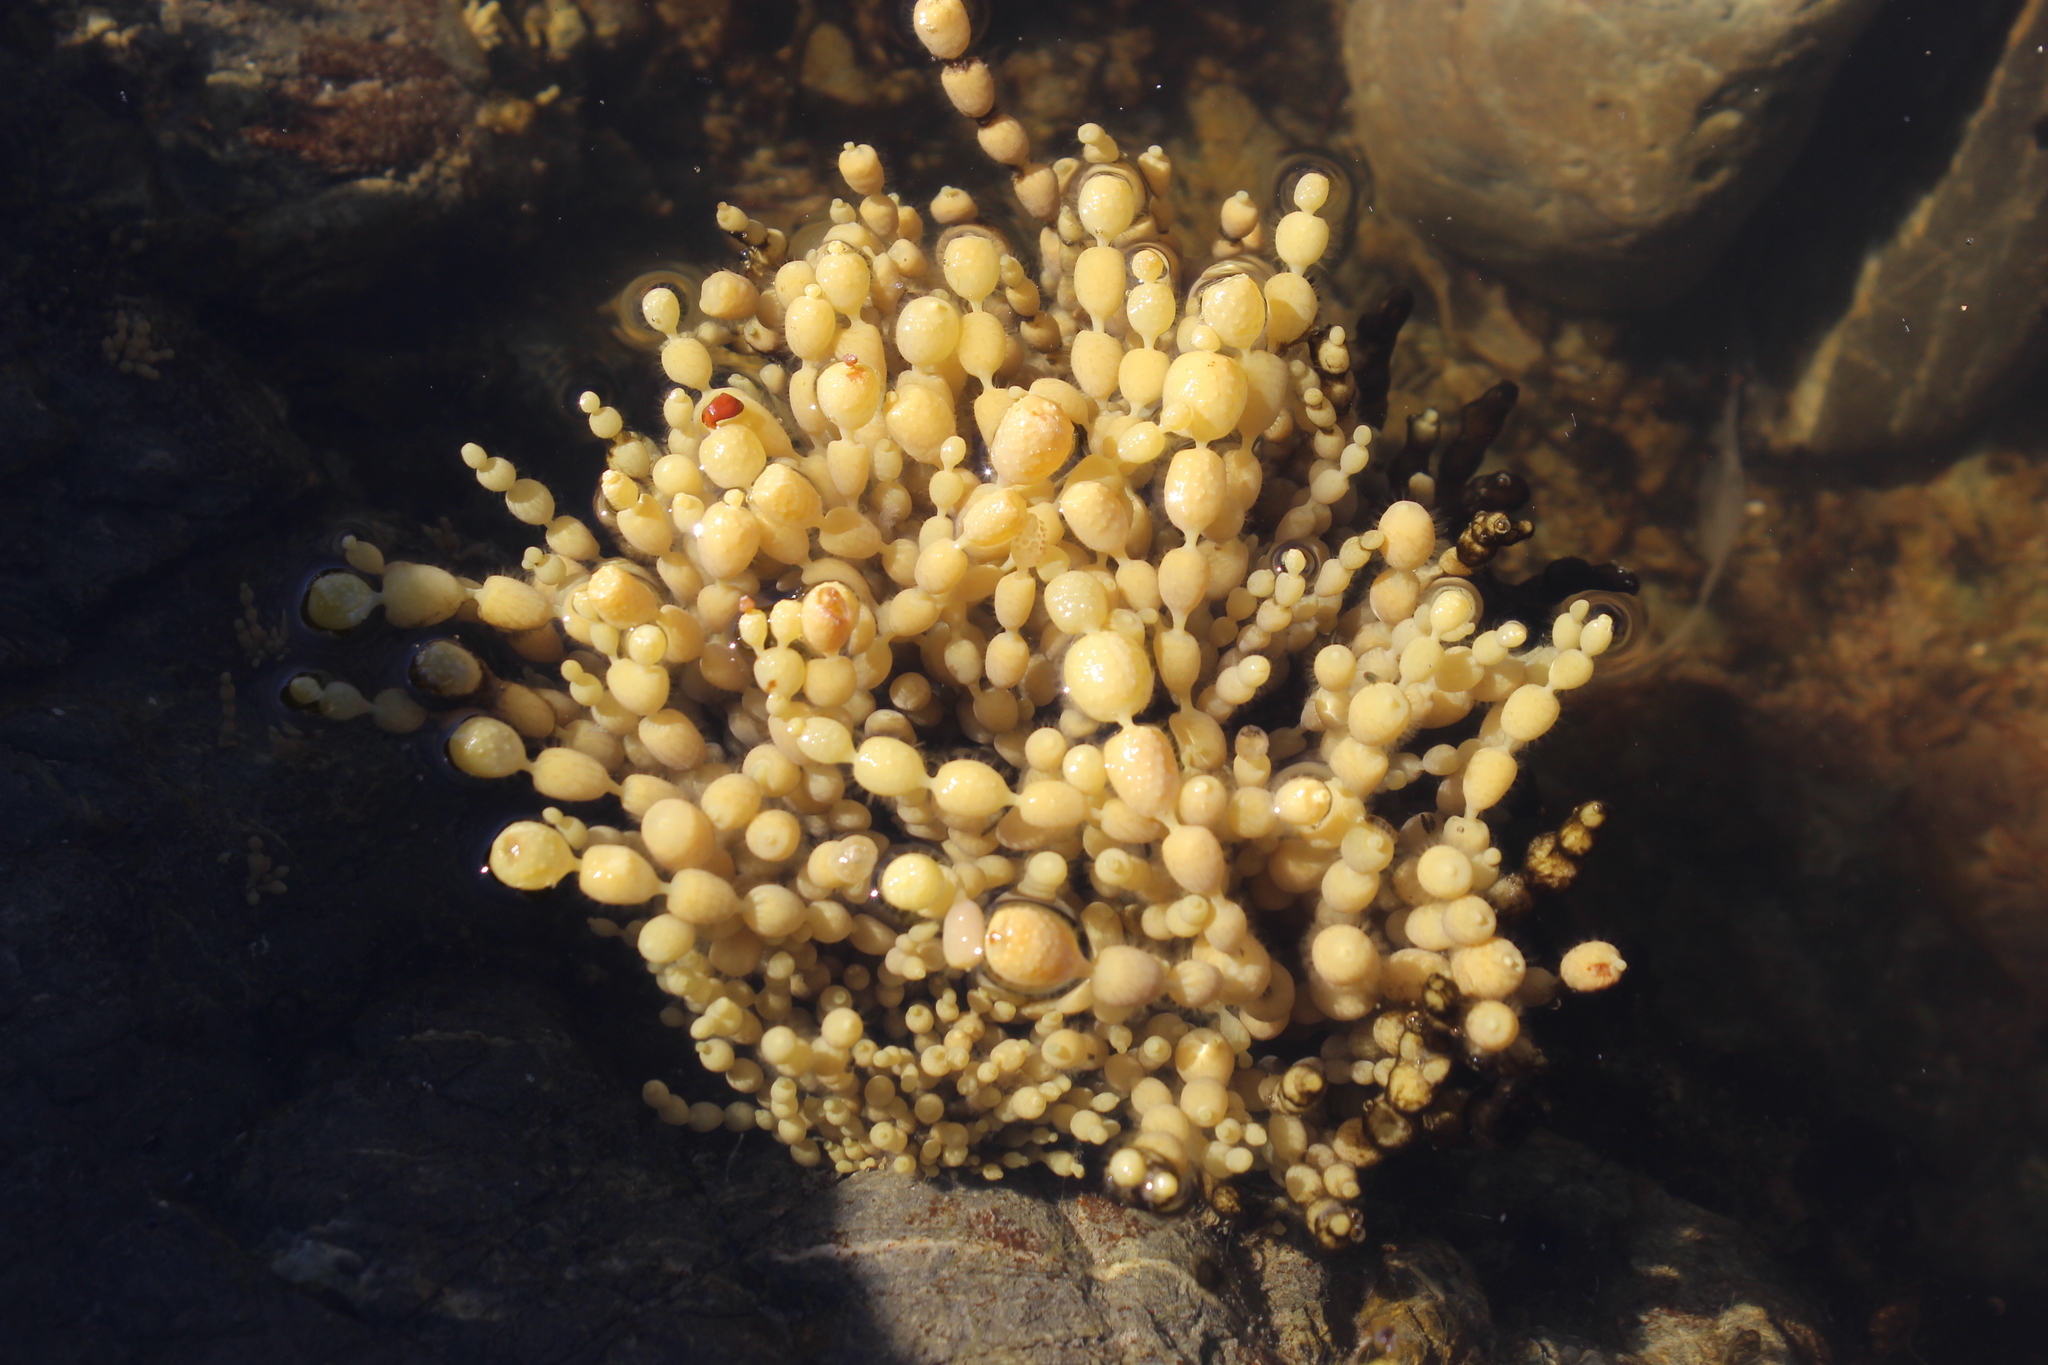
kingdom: Chromista
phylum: Ochrophyta
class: Phaeophyceae
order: Fucales
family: Hormosiraceae
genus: Hormosira
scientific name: Hormosira banksii
